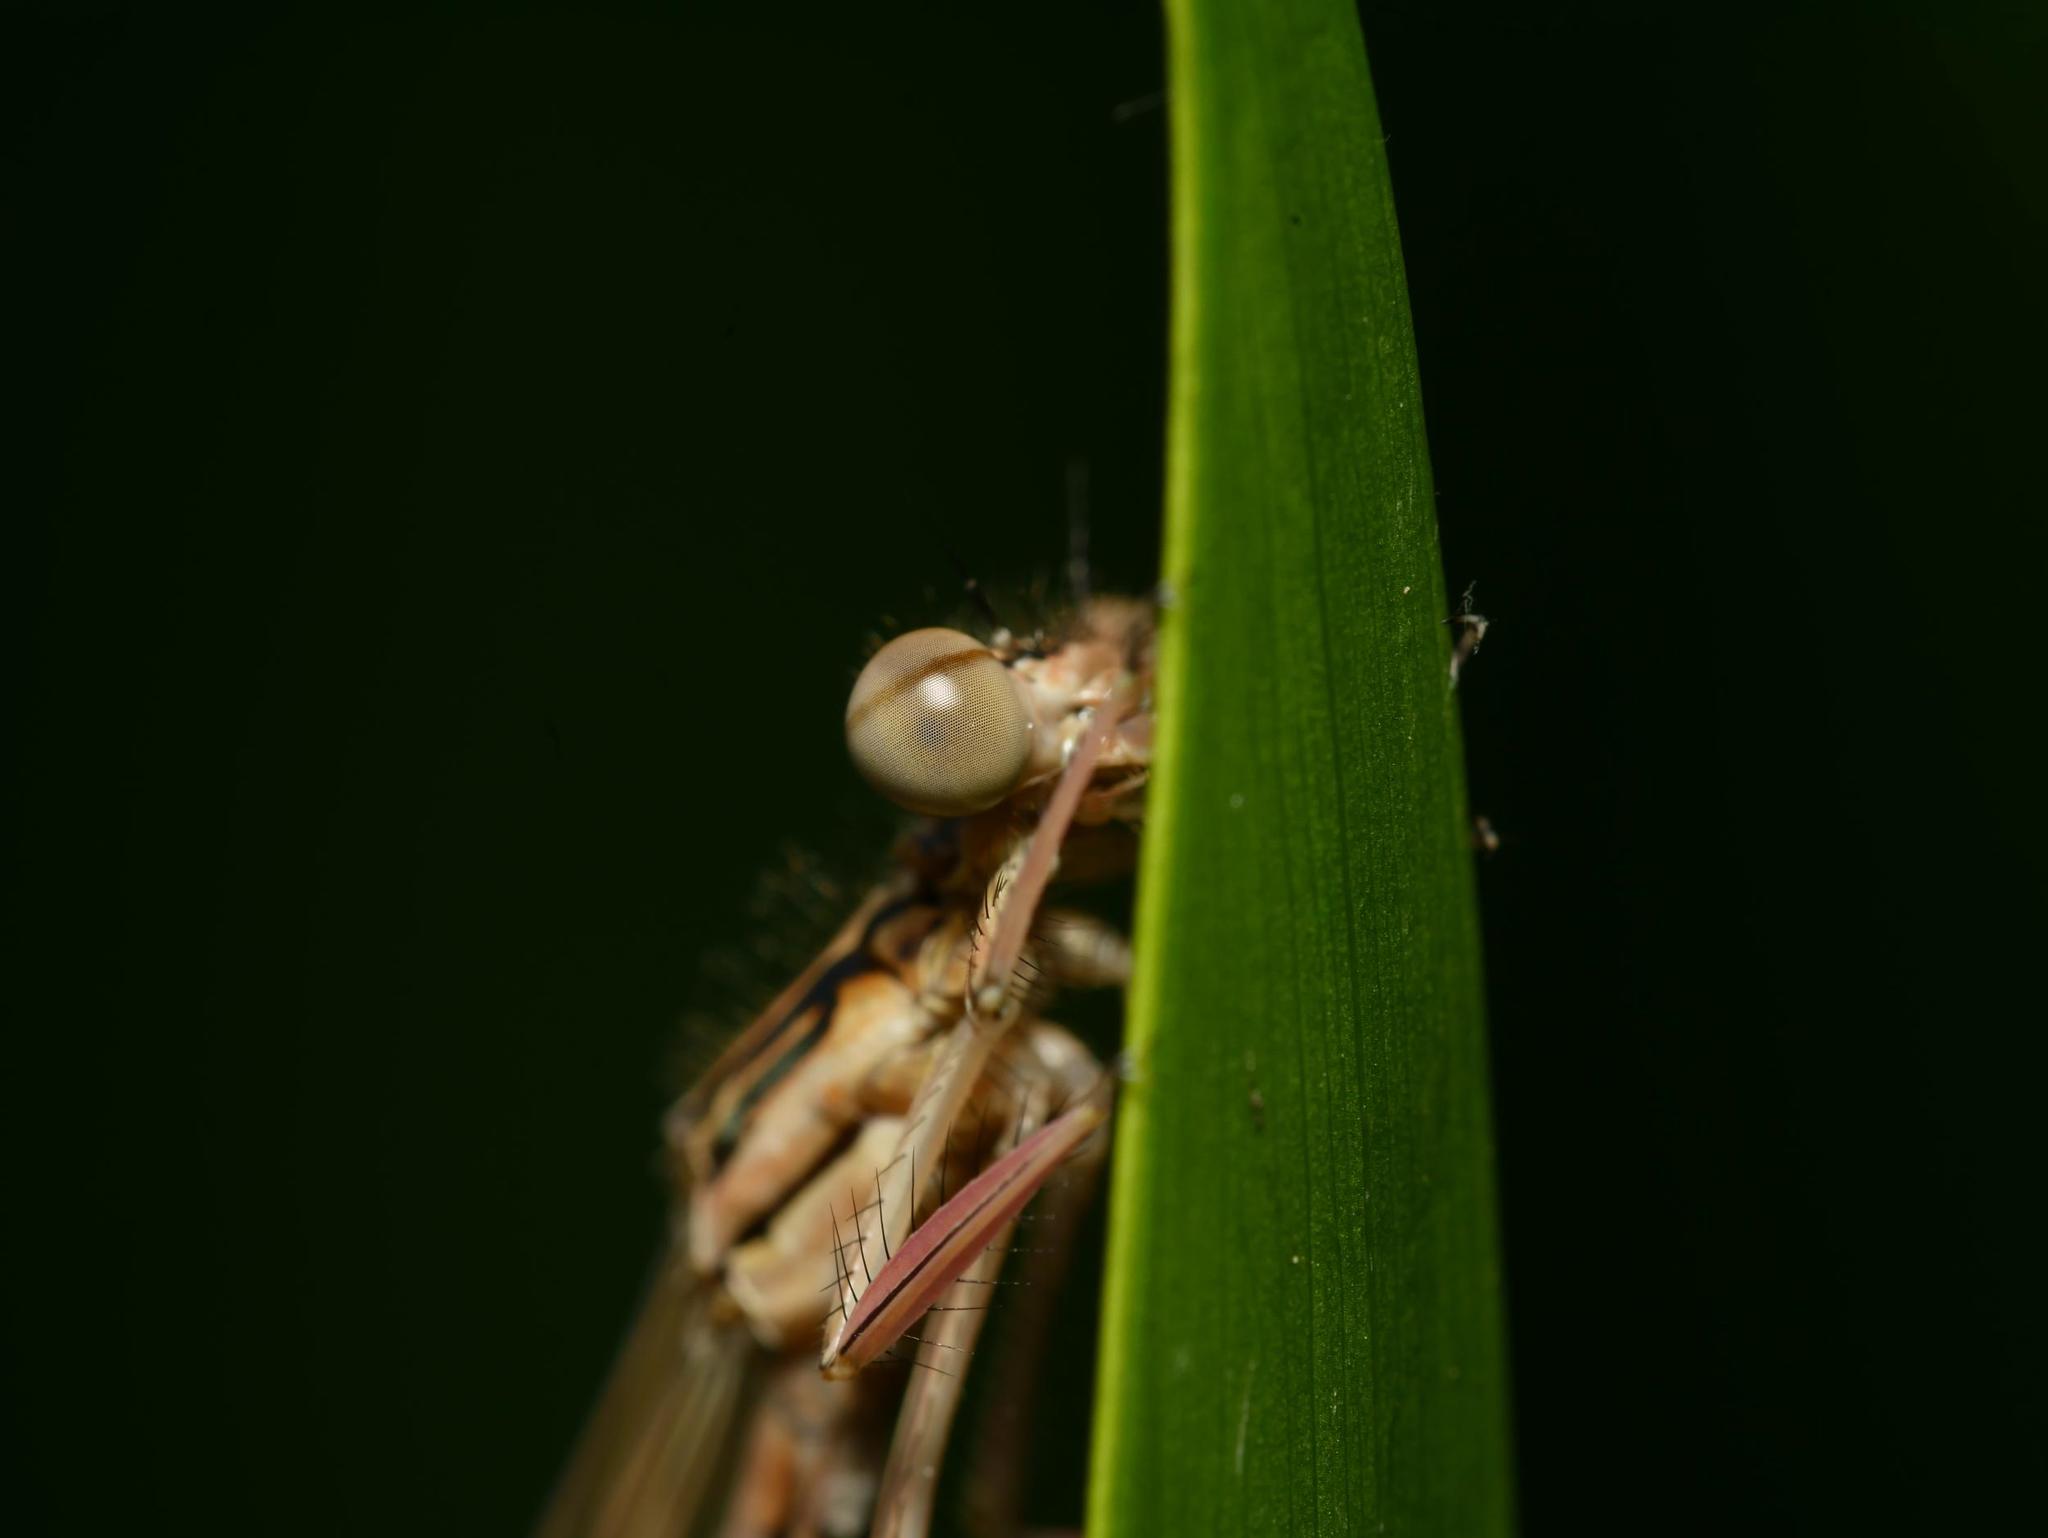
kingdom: Animalia
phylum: Arthropoda
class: Insecta
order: Odonata
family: Platycnemididae
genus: Platycnemis
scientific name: Platycnemis pennipes
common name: White-legged damselfly
